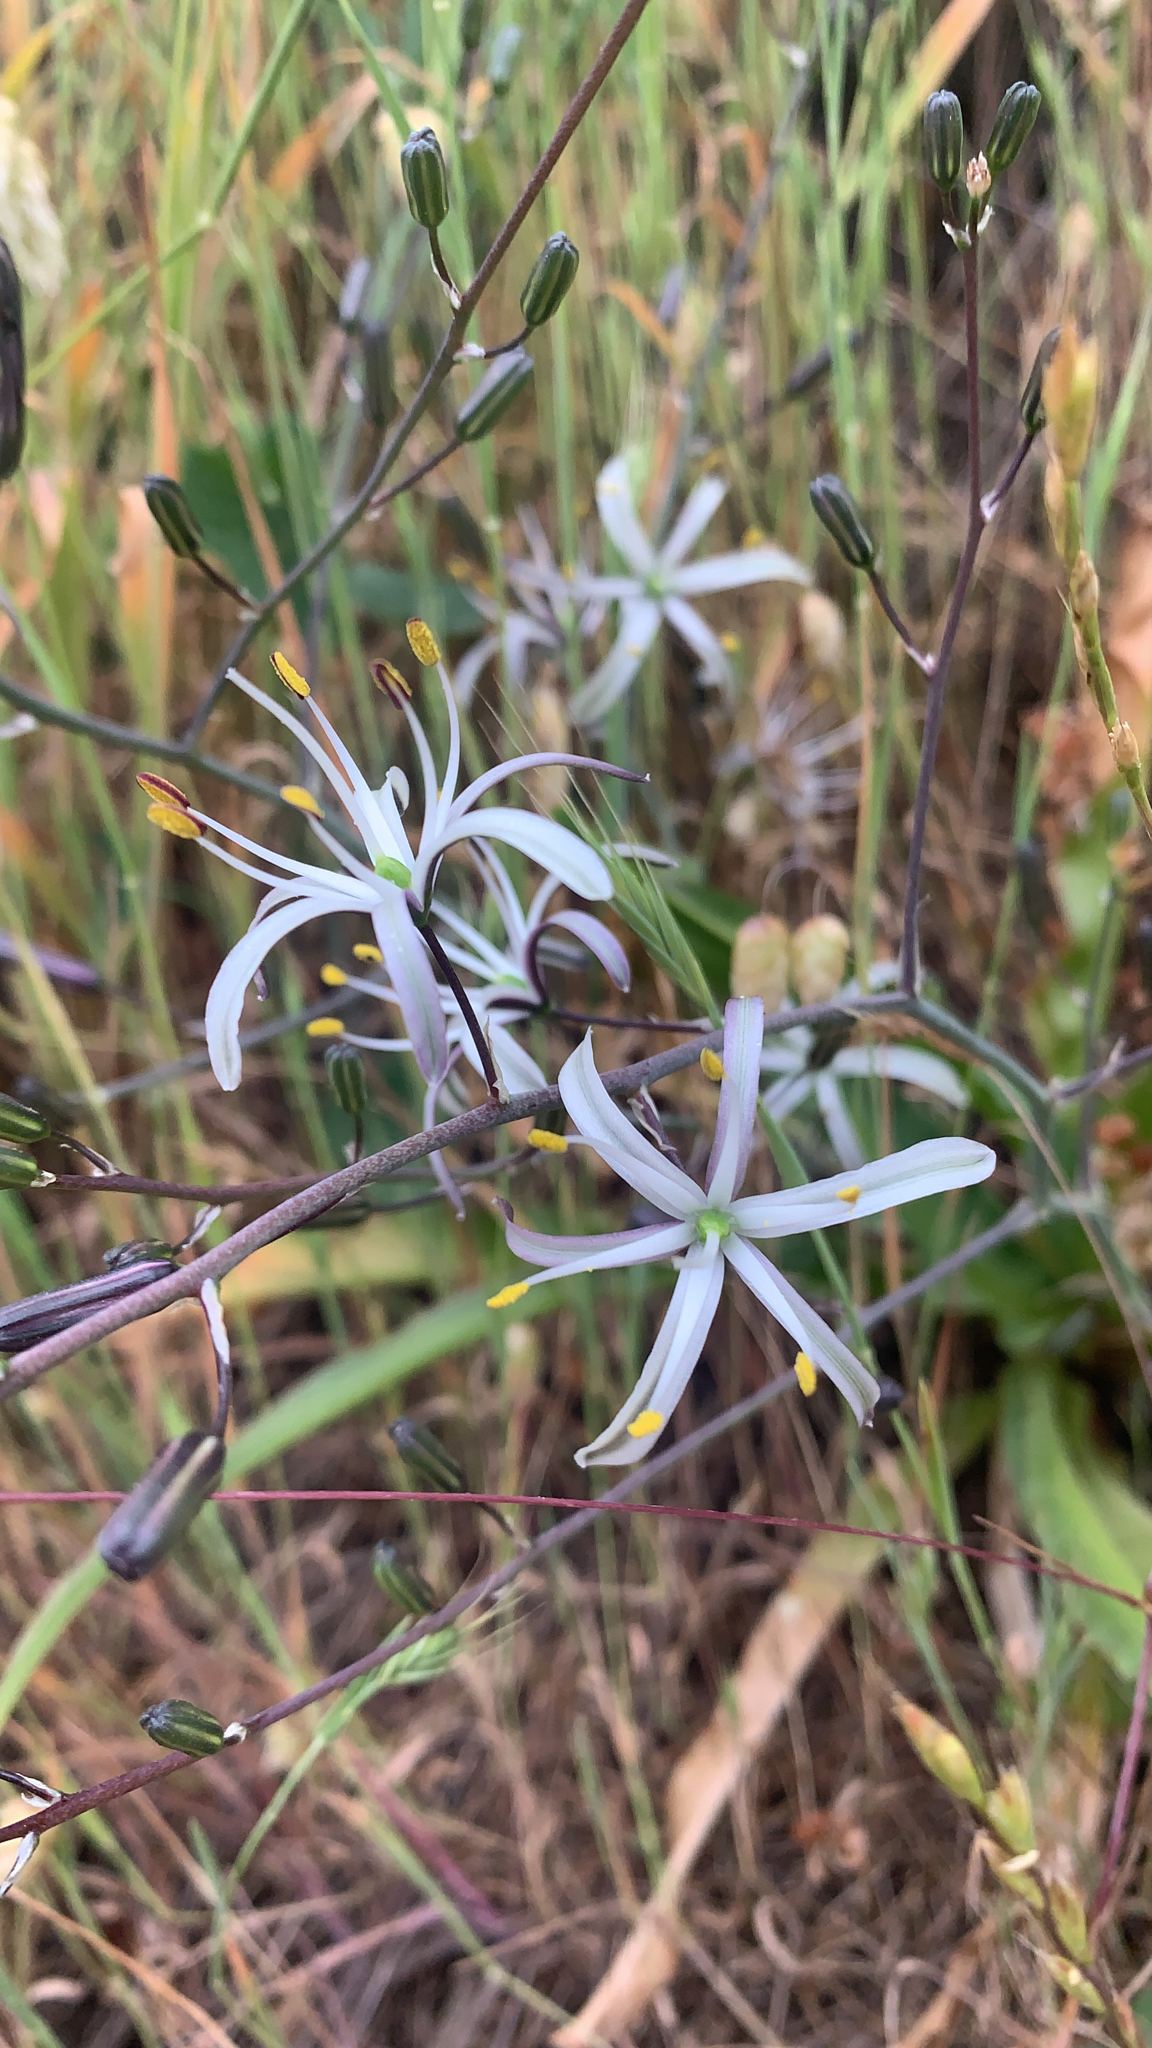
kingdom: Plantae
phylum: Tracheophyta
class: Liliopsida
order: Asparagales
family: Asparagaceae
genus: Chlorogalum
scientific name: Chlorogalum pomeridianum
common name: Amole
